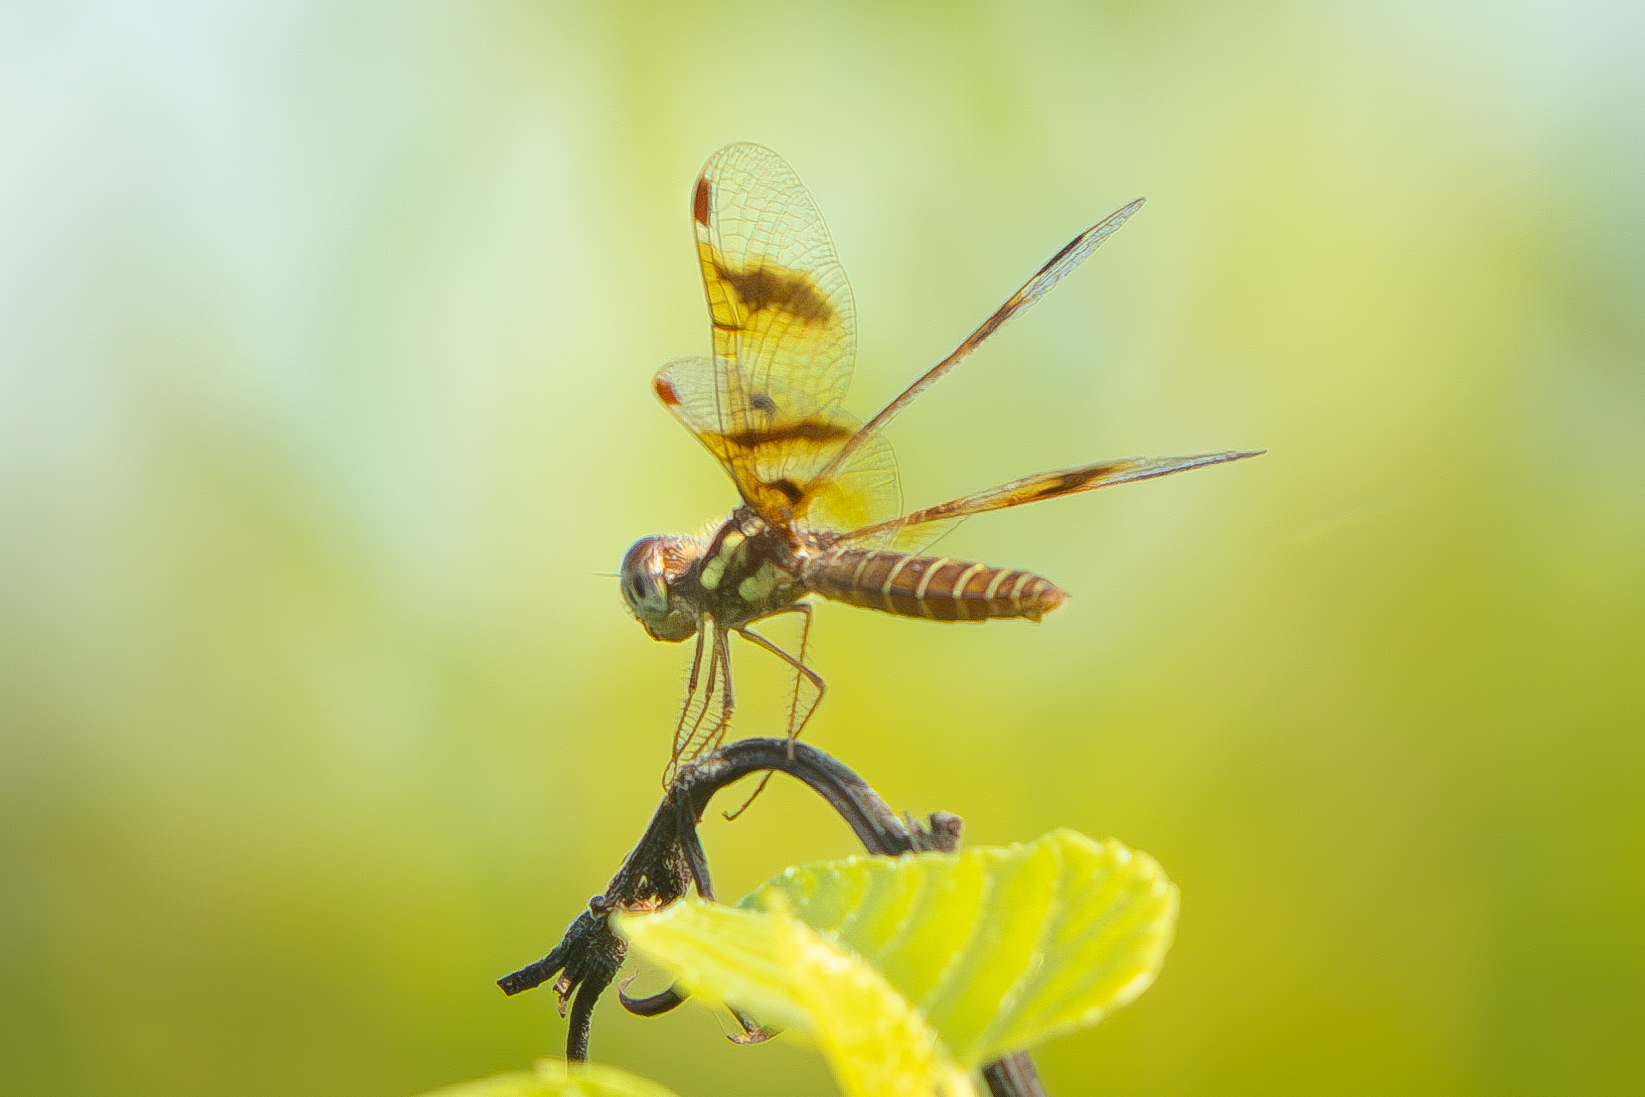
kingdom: Animalia
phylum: Arthropoda
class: Insecta
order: Odonata
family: Libellulidae
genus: Perithemis
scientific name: Perithemis tenera
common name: Eastern amberwing
